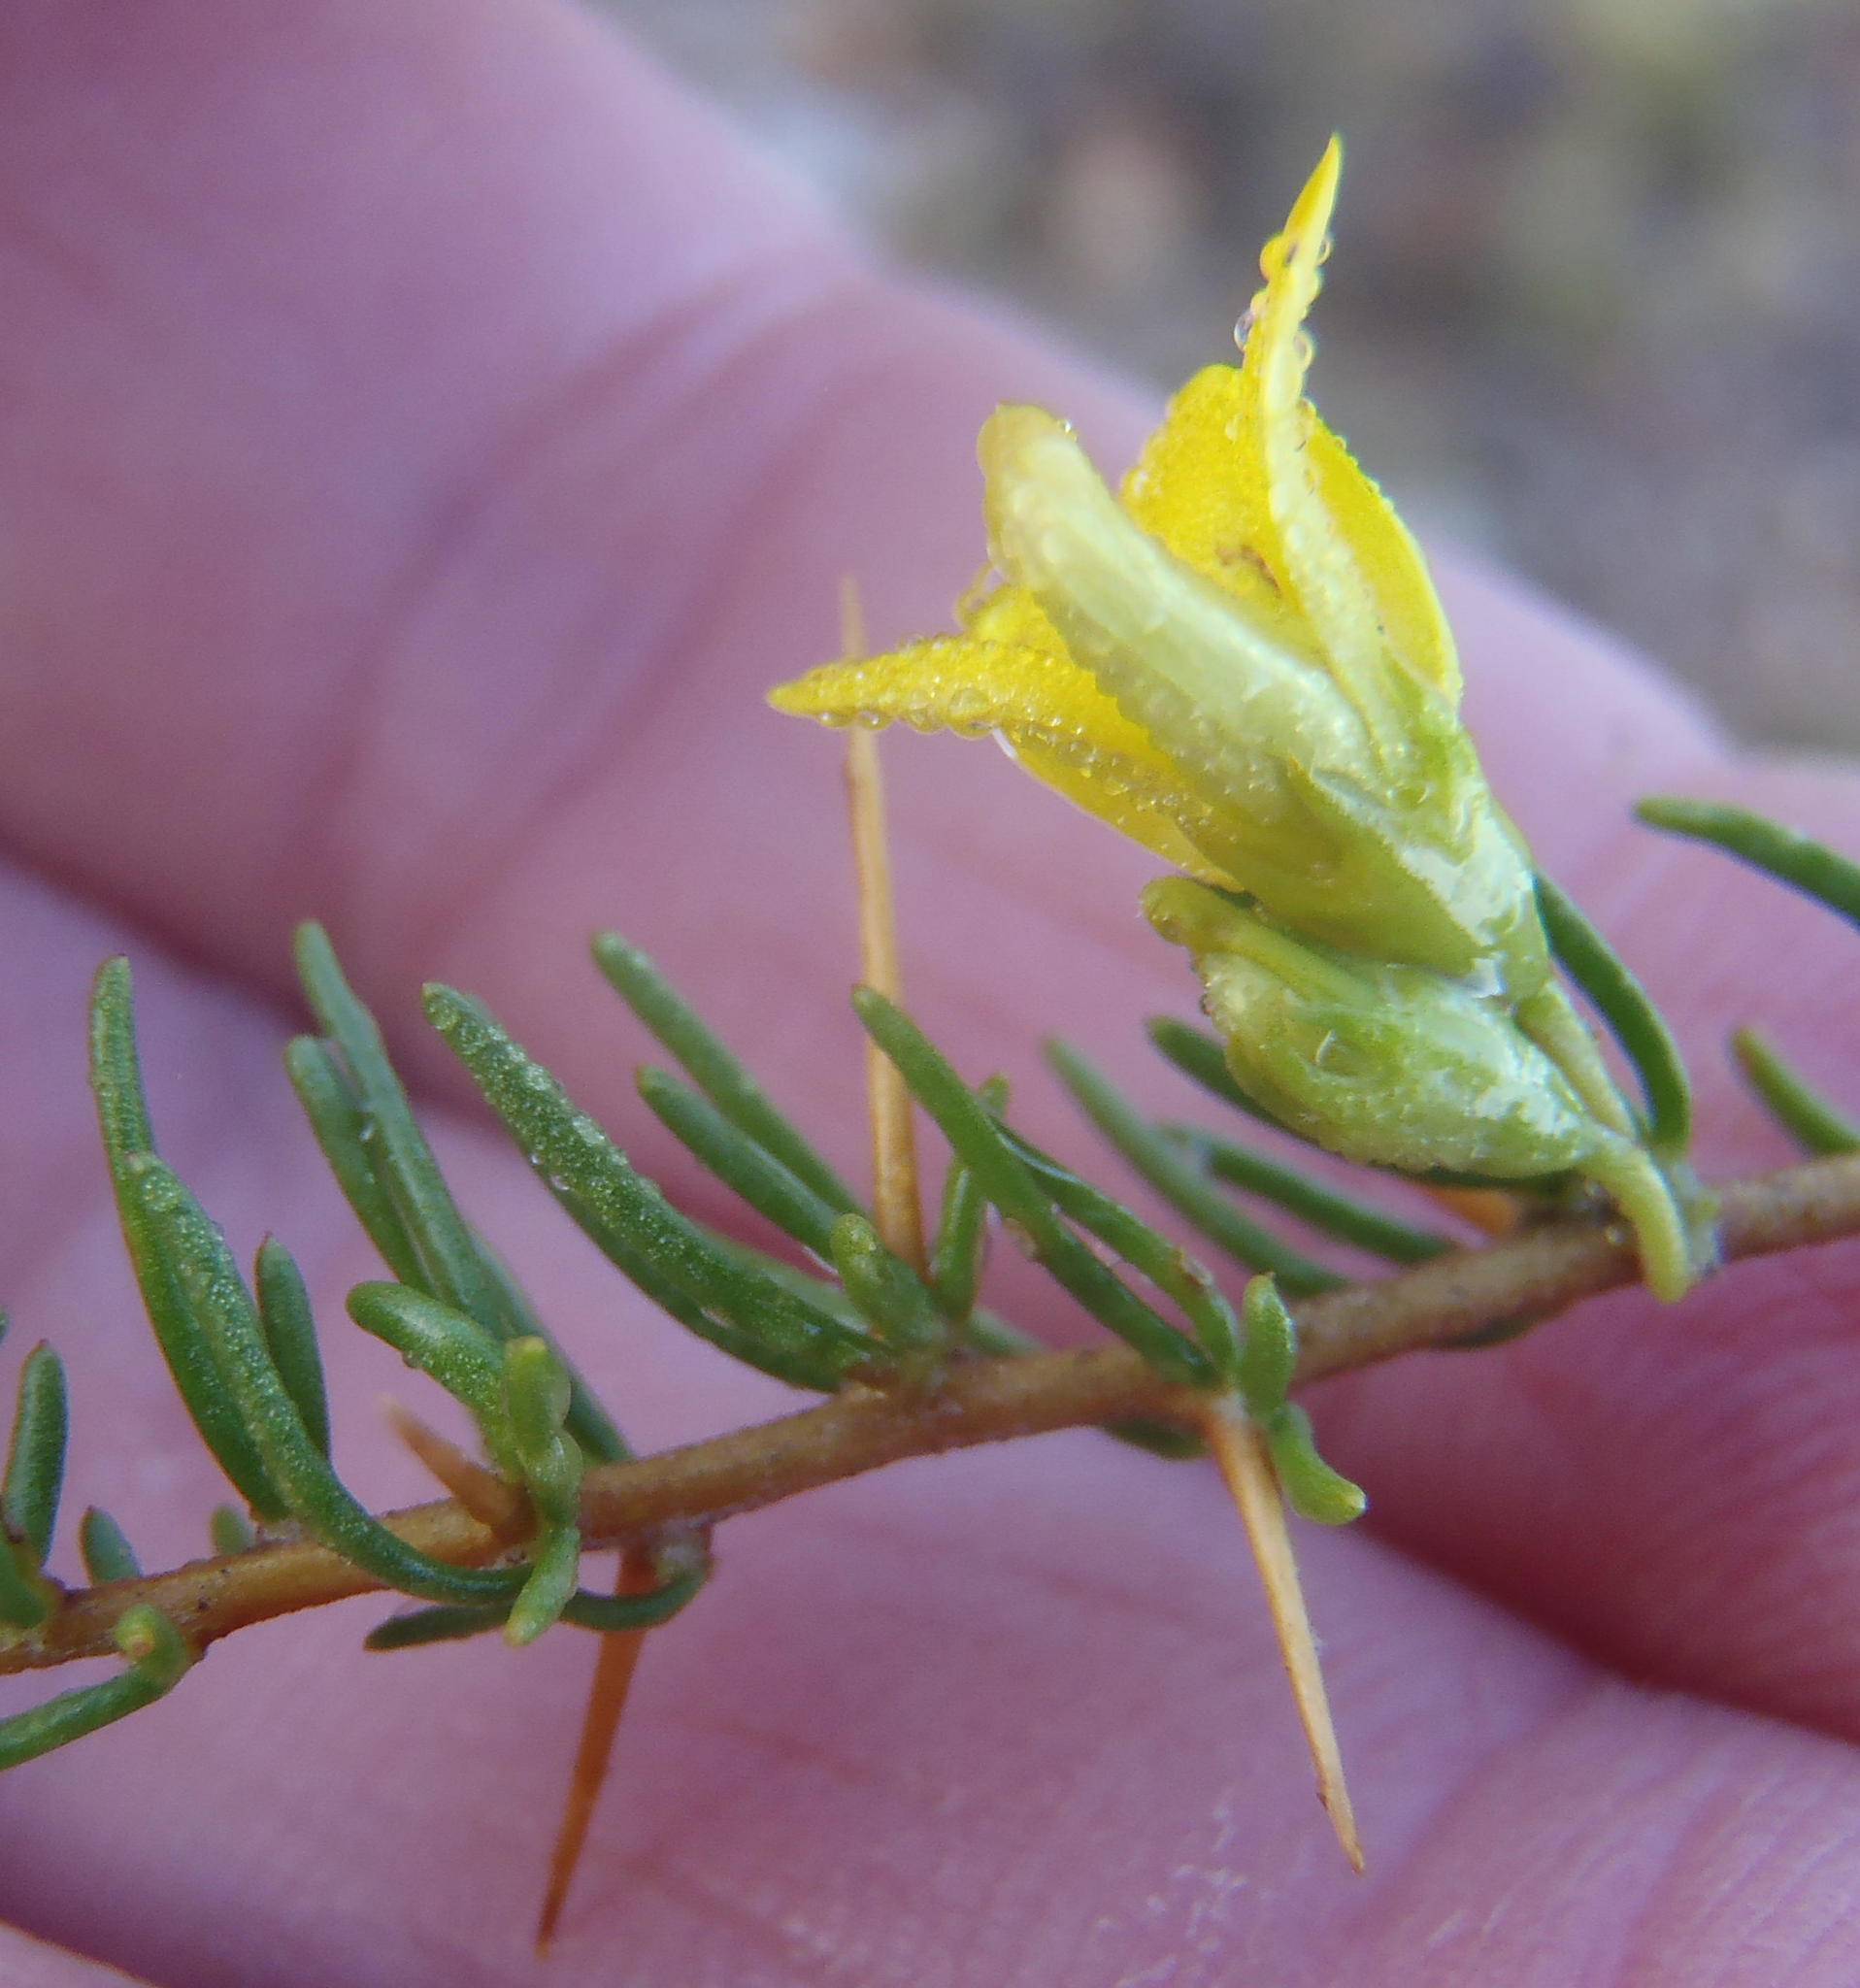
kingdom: Plantae
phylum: Tracheophyta
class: Magnoliopsida
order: Fabales
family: Fabaceae
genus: Aspalathus
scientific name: Aspalathus spinosa
